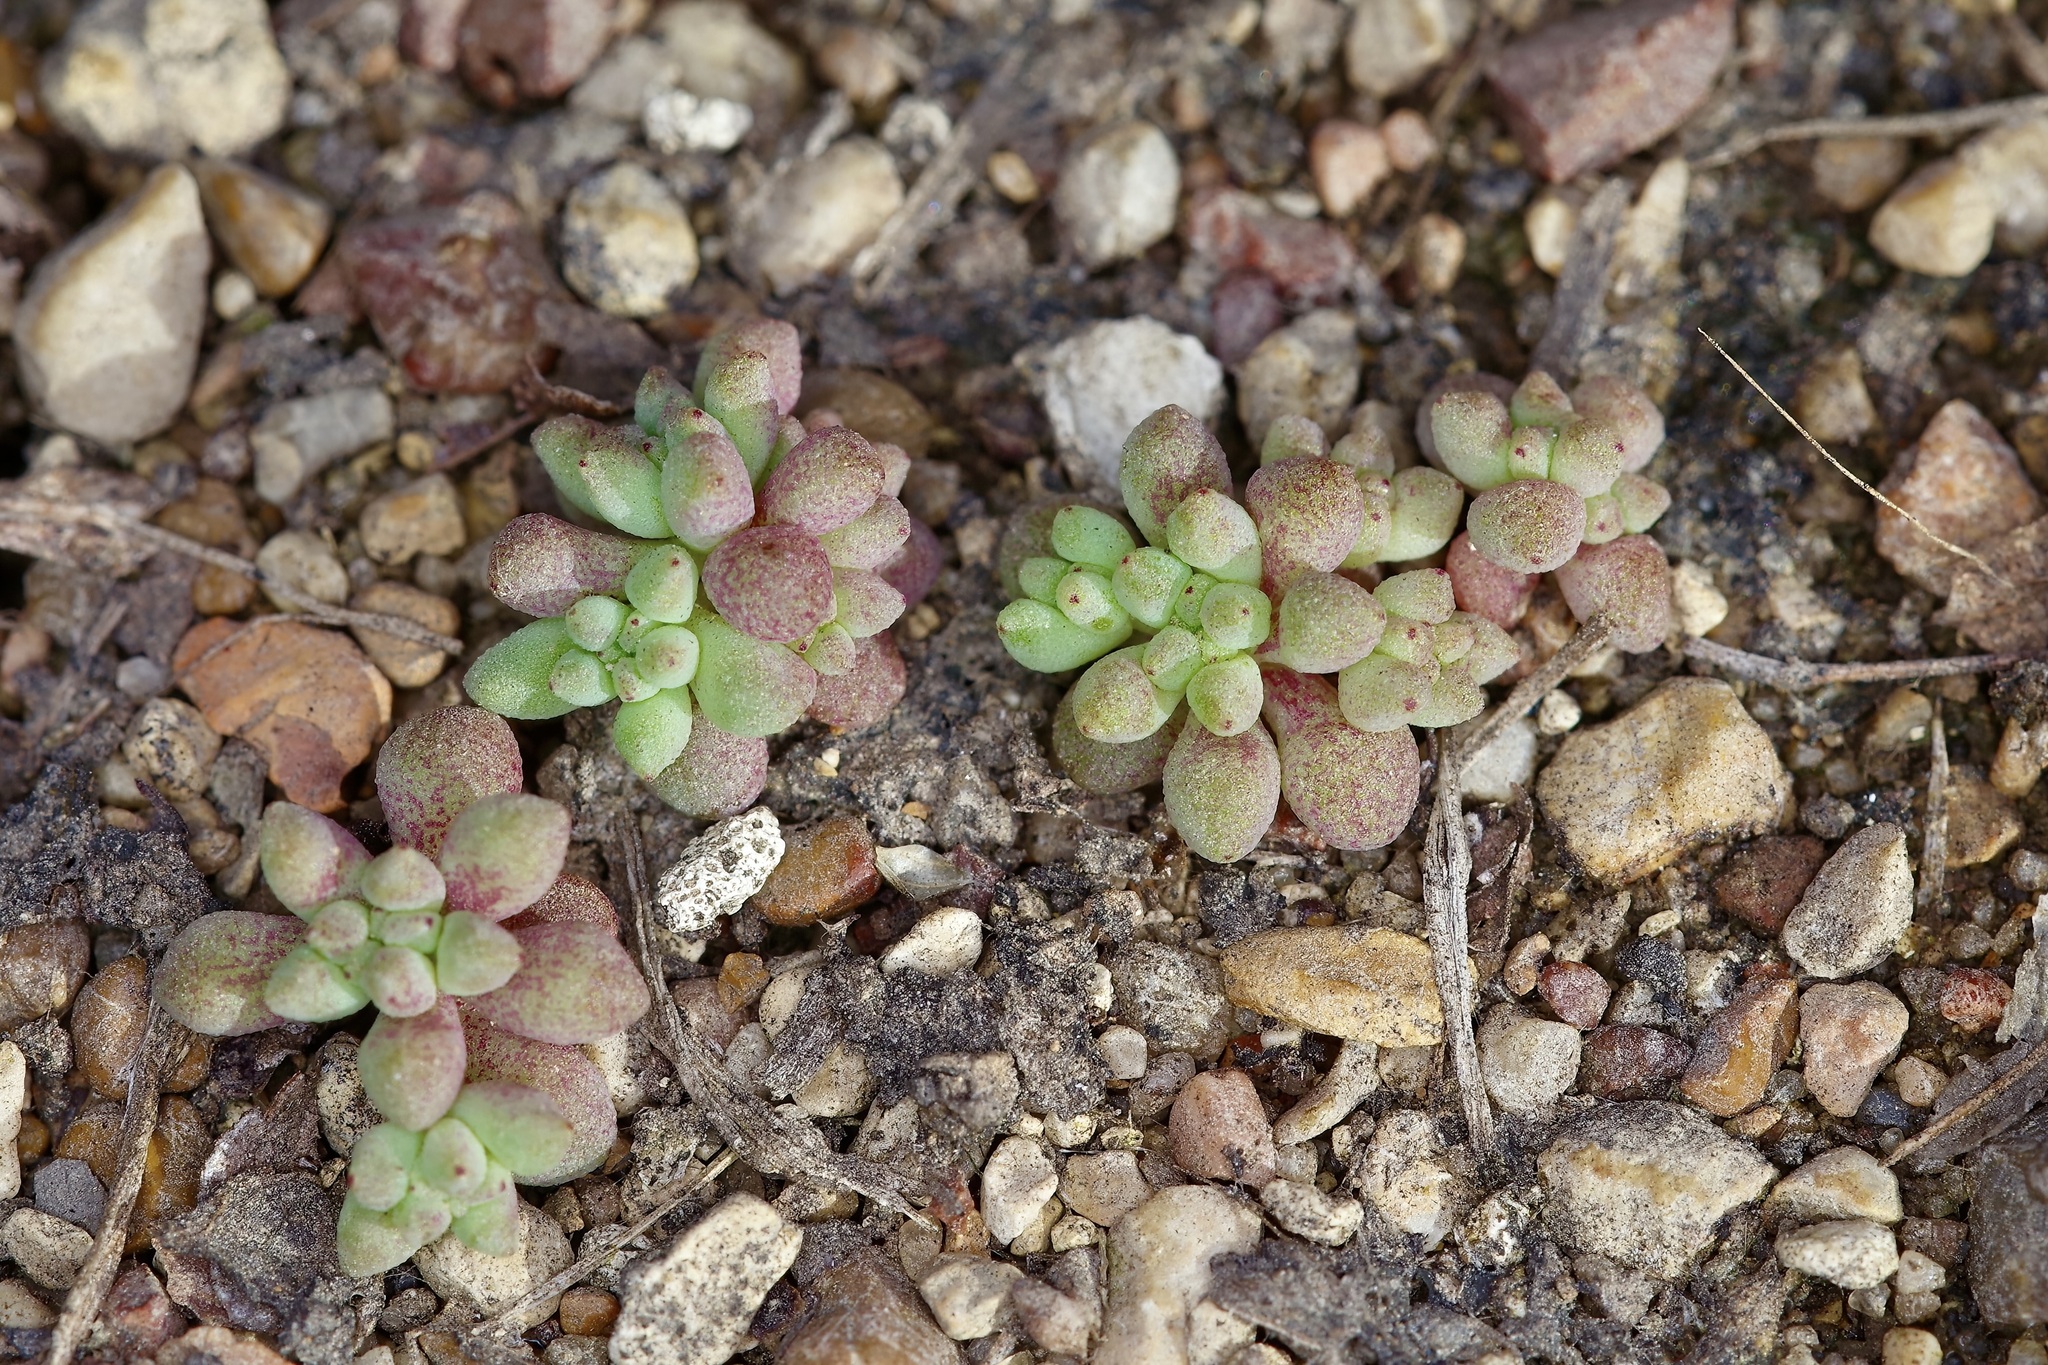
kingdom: Plantae
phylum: Tracheophyta
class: Magnoliopsida
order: Saxifragales
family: Crassulaceae
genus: Sedum
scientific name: Sedum nuttallii
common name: Yellow stonecrop
